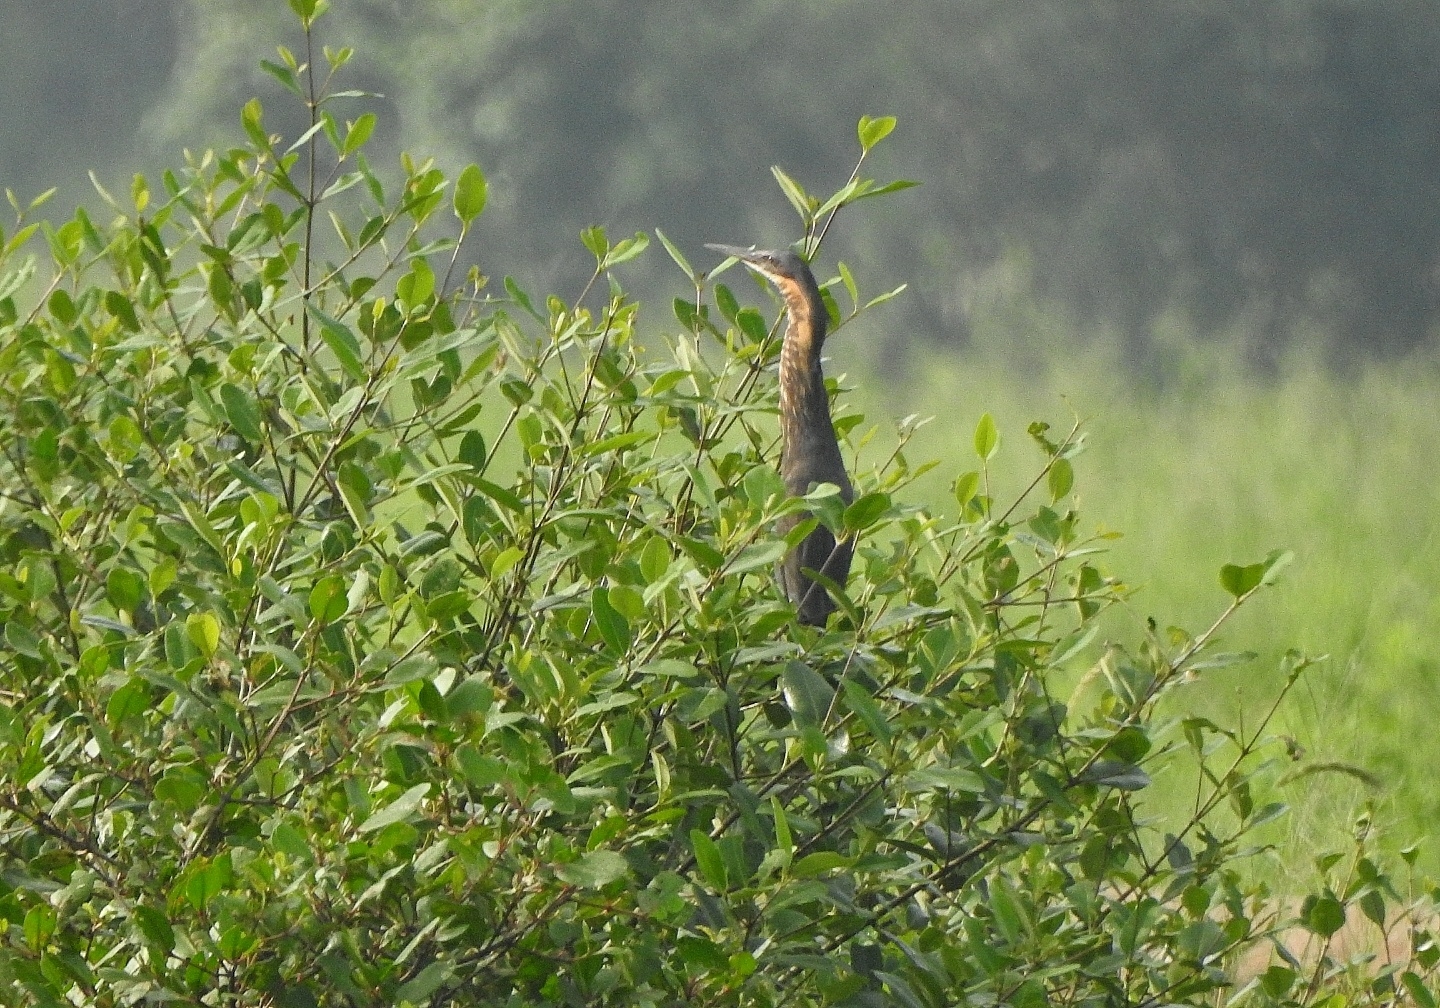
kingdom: Animalia
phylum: Chordata
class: Aves
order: Pelecaniformes
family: Ardeidae
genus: Dupetor
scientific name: Dupetor flavicollis
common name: Black bittern
